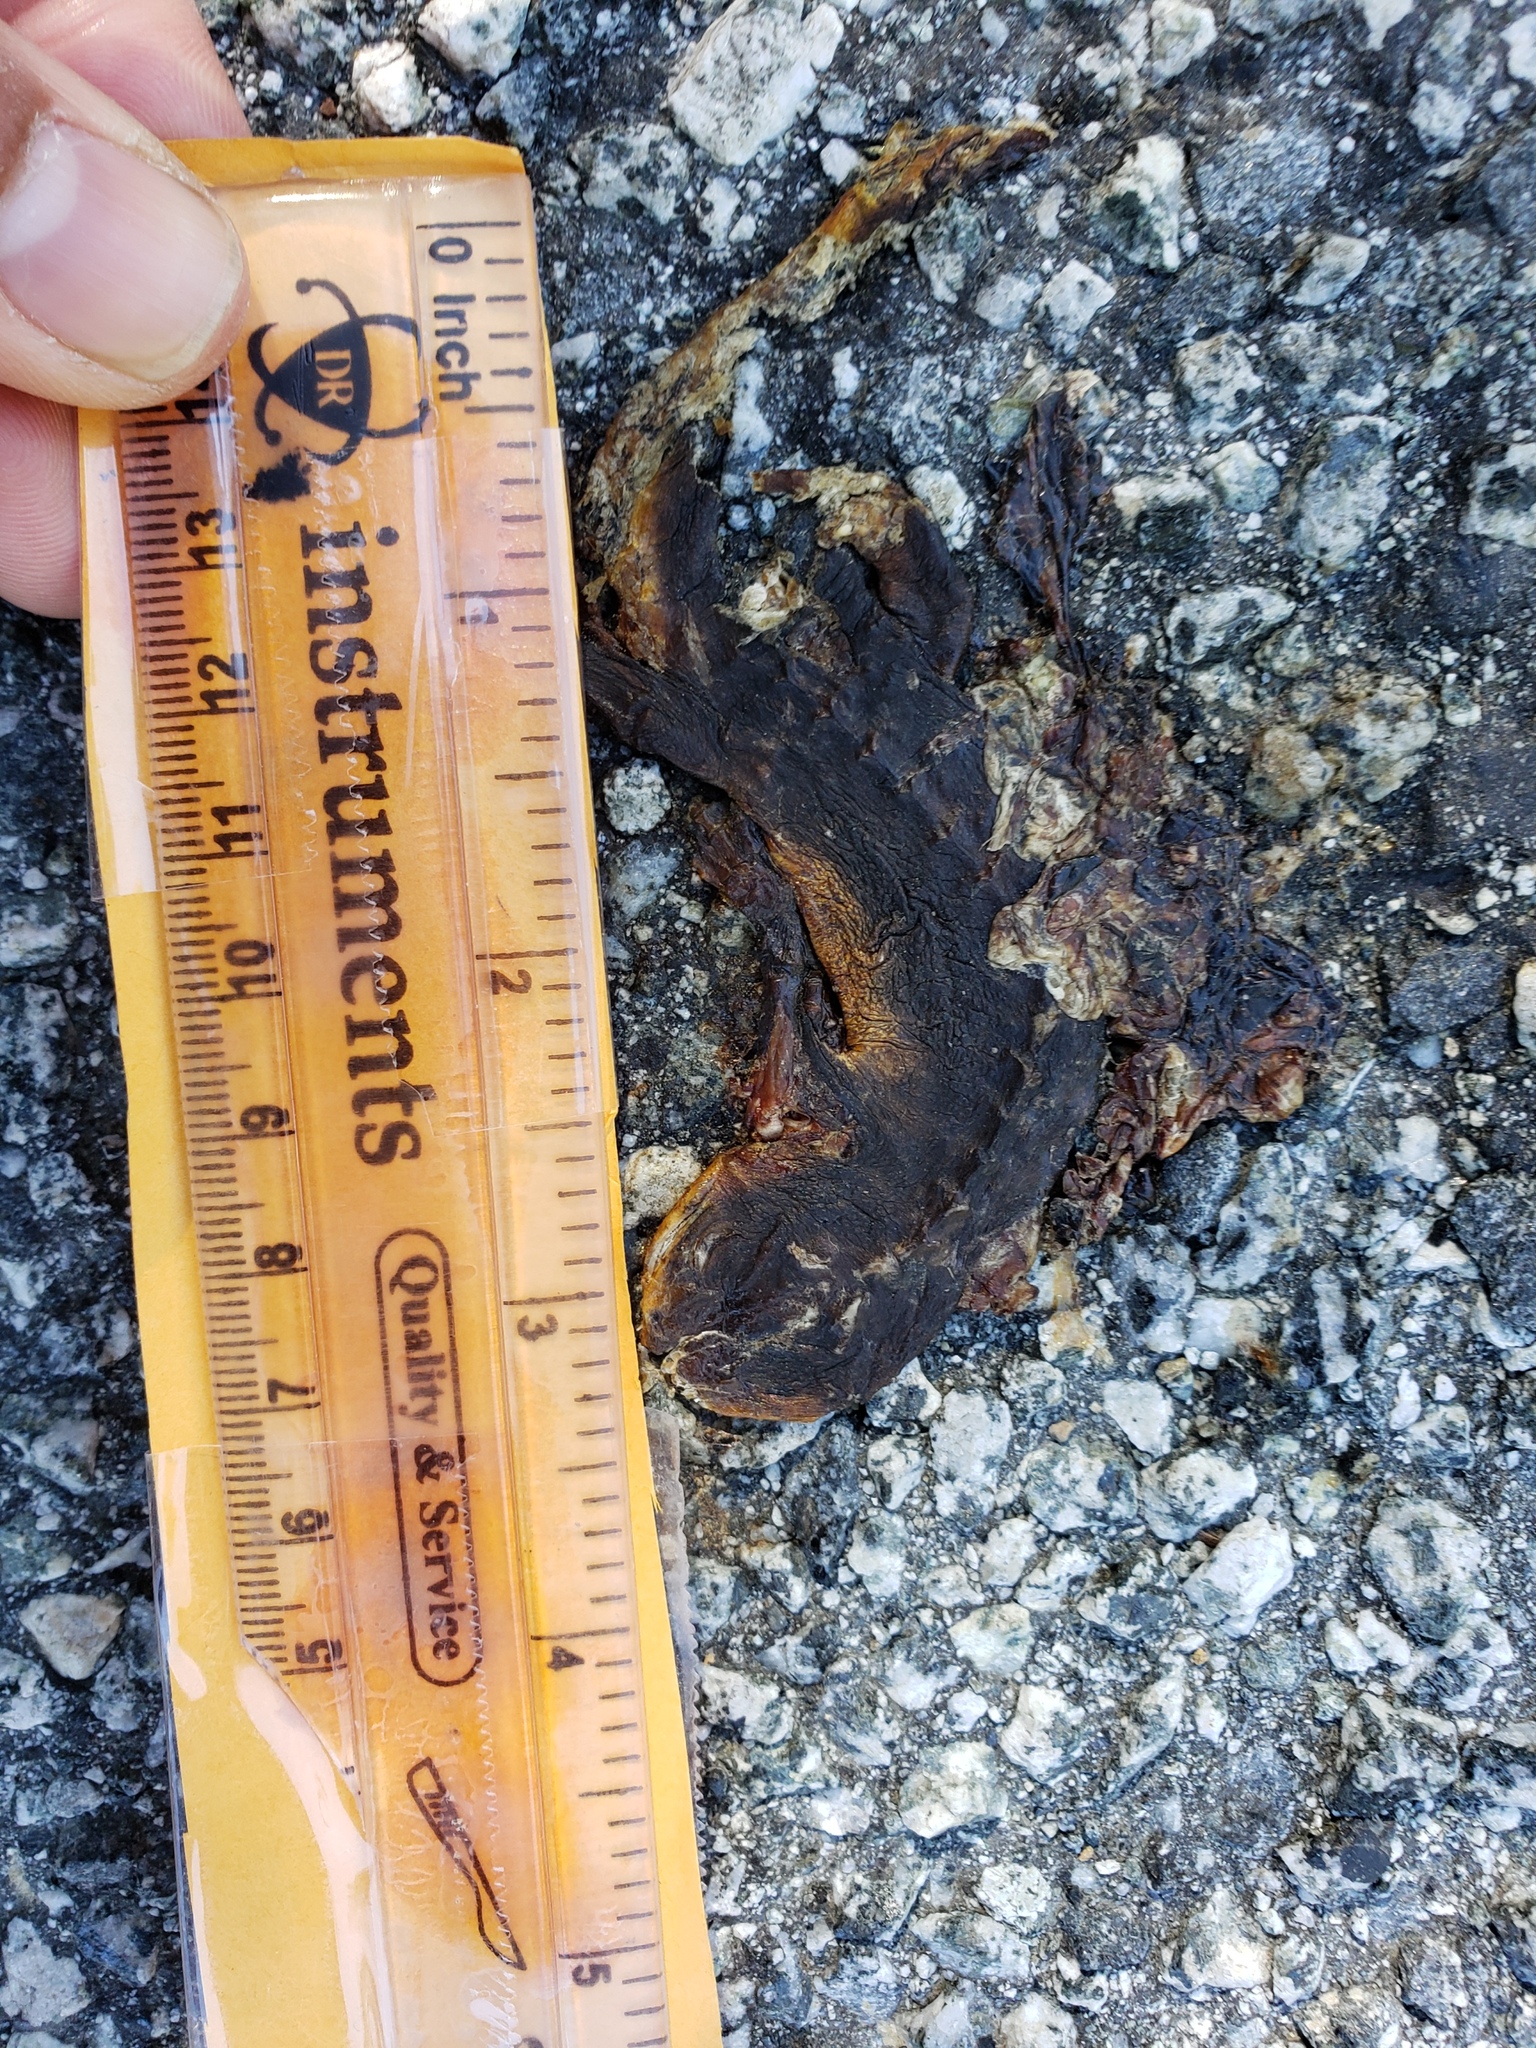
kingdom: Animalia
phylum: Chordata
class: Amphibia
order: Caudata
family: Salamandridae
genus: Taricha
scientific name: Taricha
